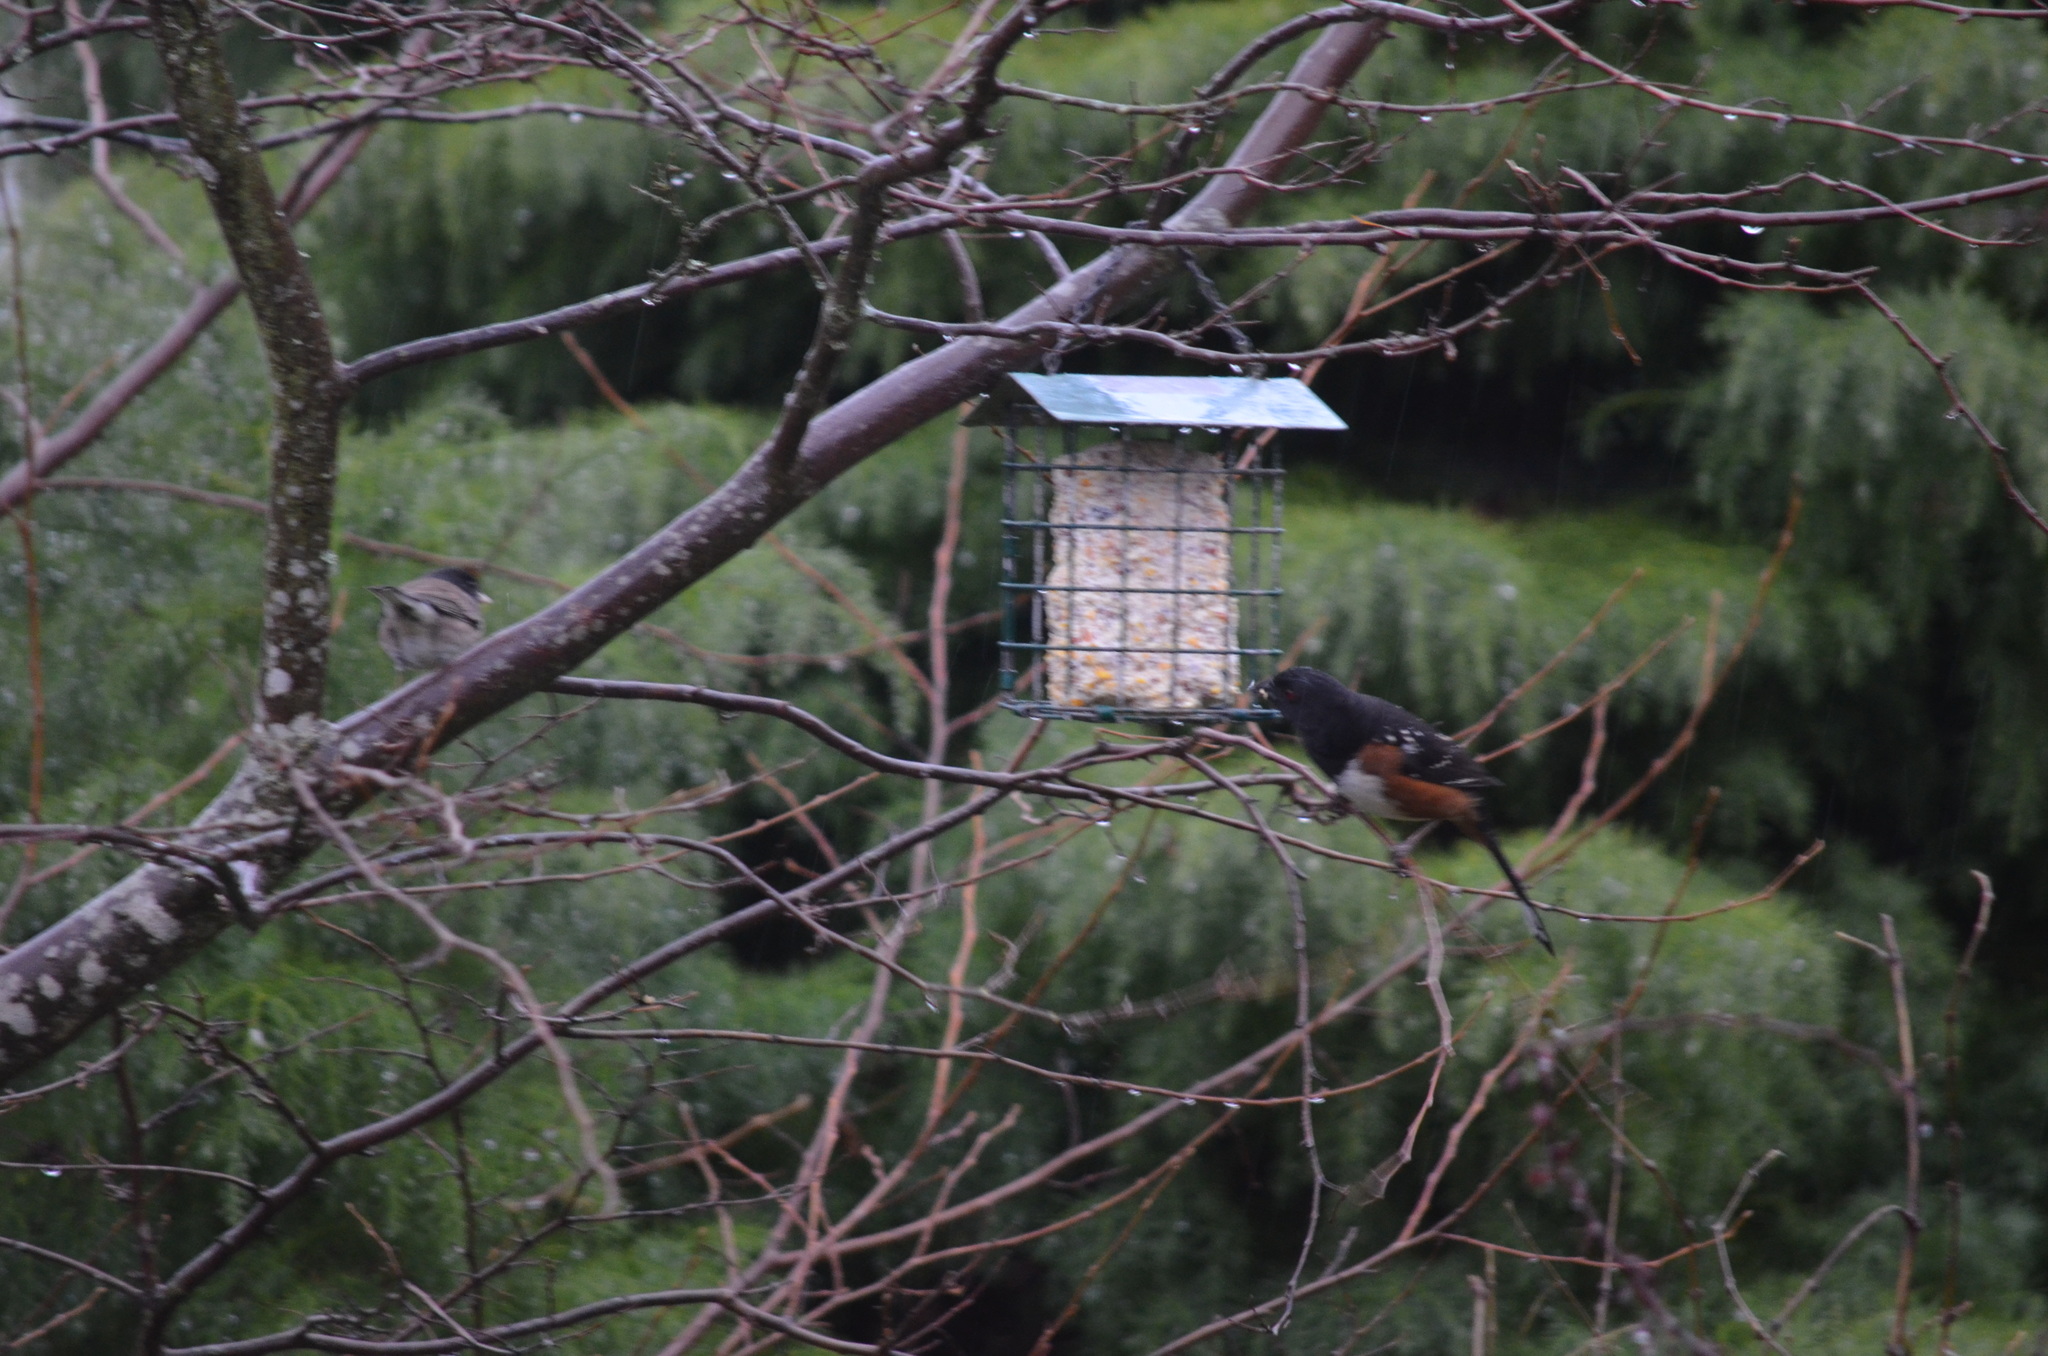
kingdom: Animalia
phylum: Chordata
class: Aves
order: Passeriformes
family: Passerellidae
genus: Pipilo
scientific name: Pipilo maculatus
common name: Spotted towhee
